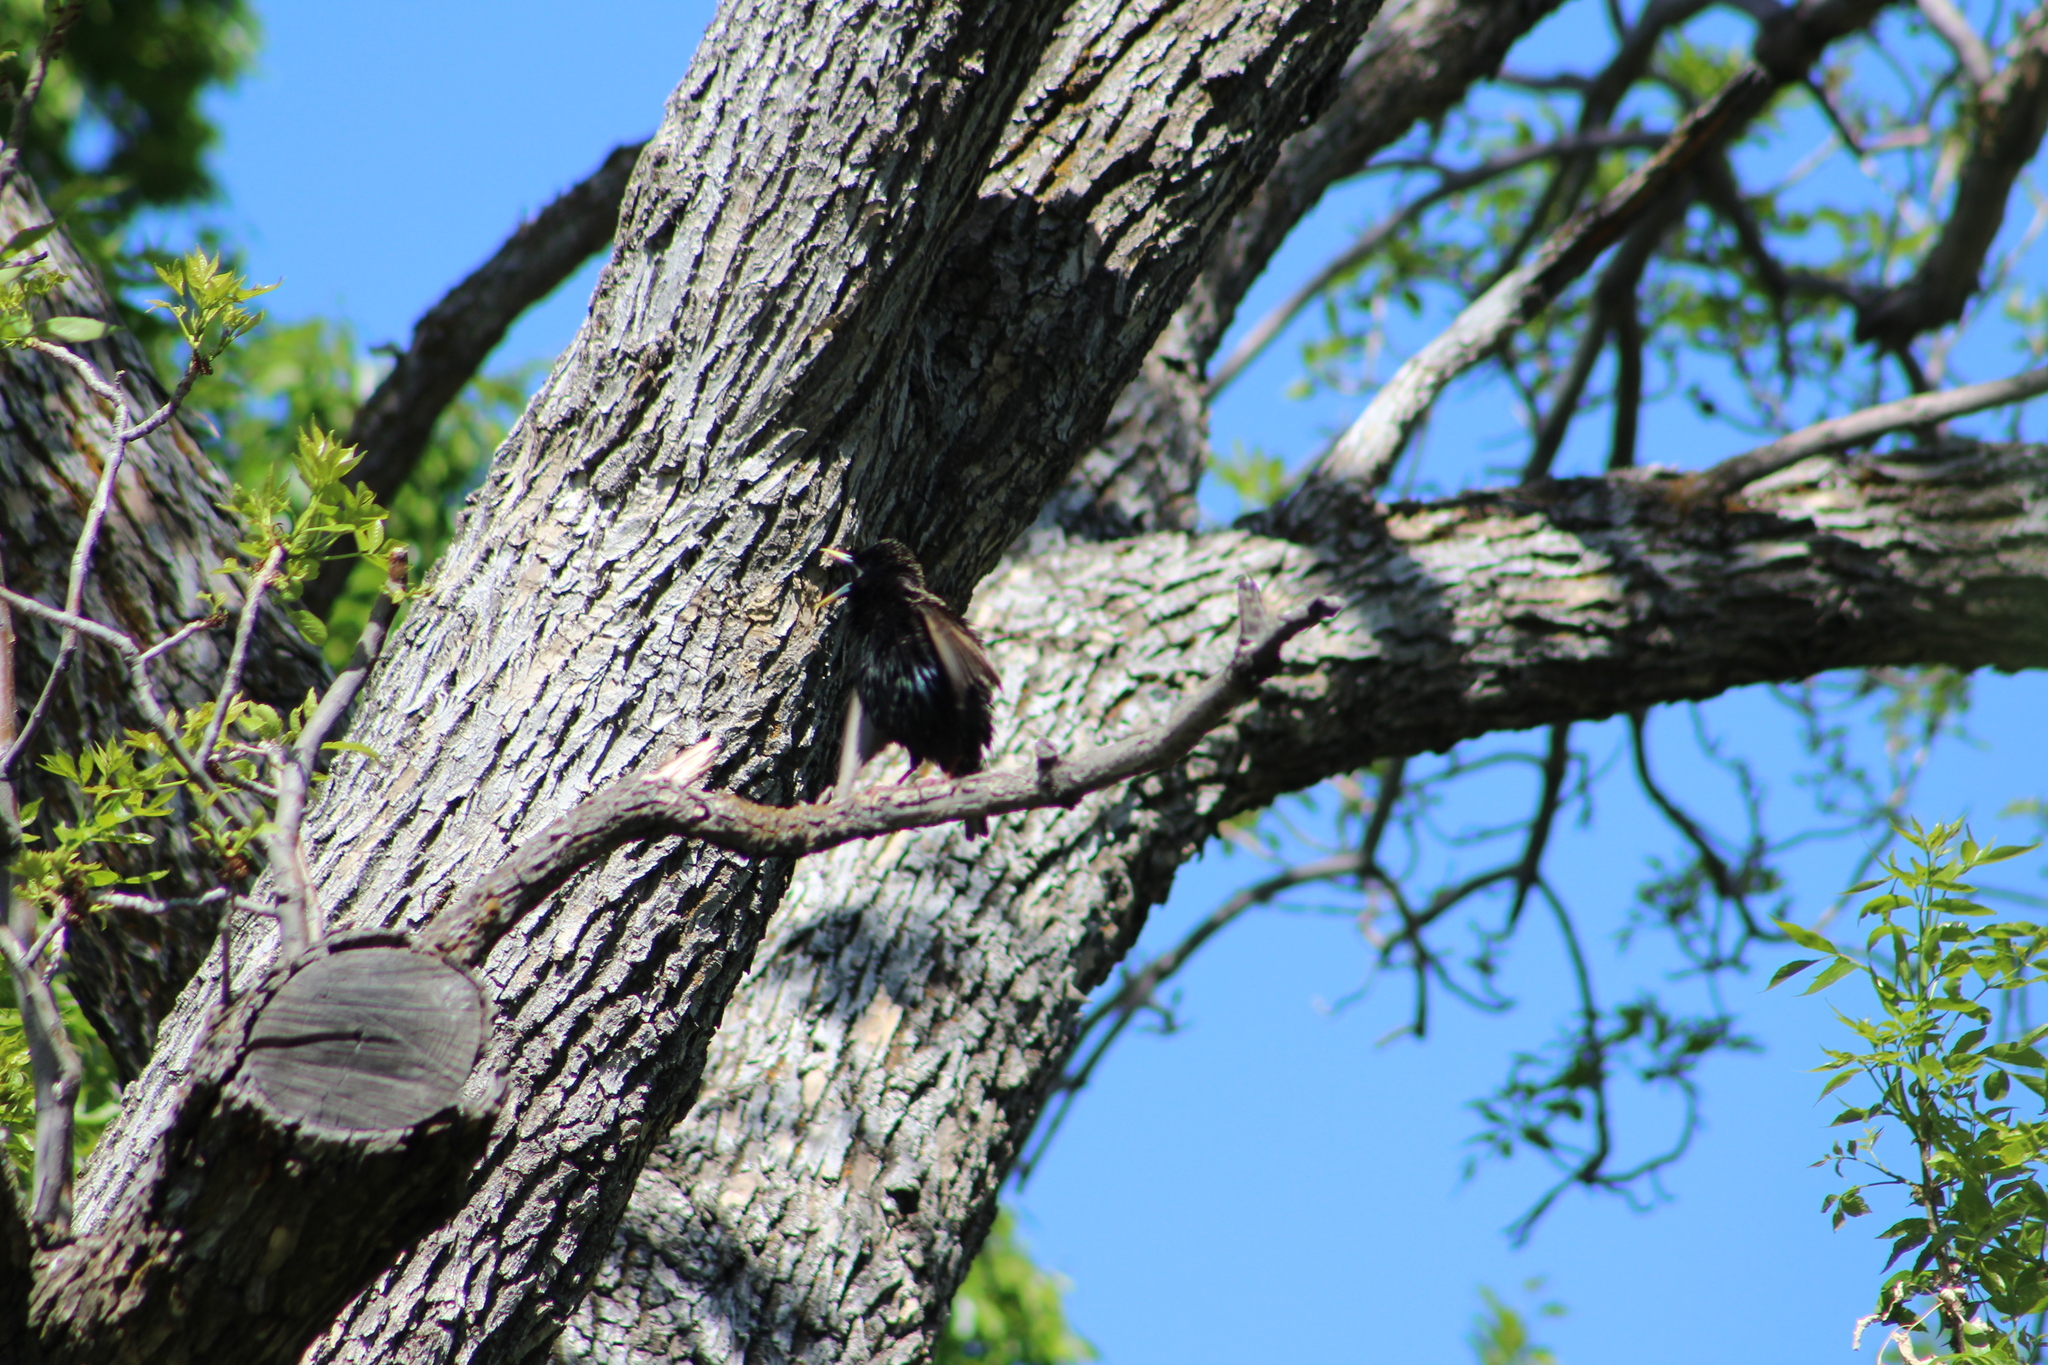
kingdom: Animalia
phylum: Chordata
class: Aves
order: Passeriformes
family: Sturnidae
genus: Sturnus
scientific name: Sturnus vulgaris
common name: Common starling
